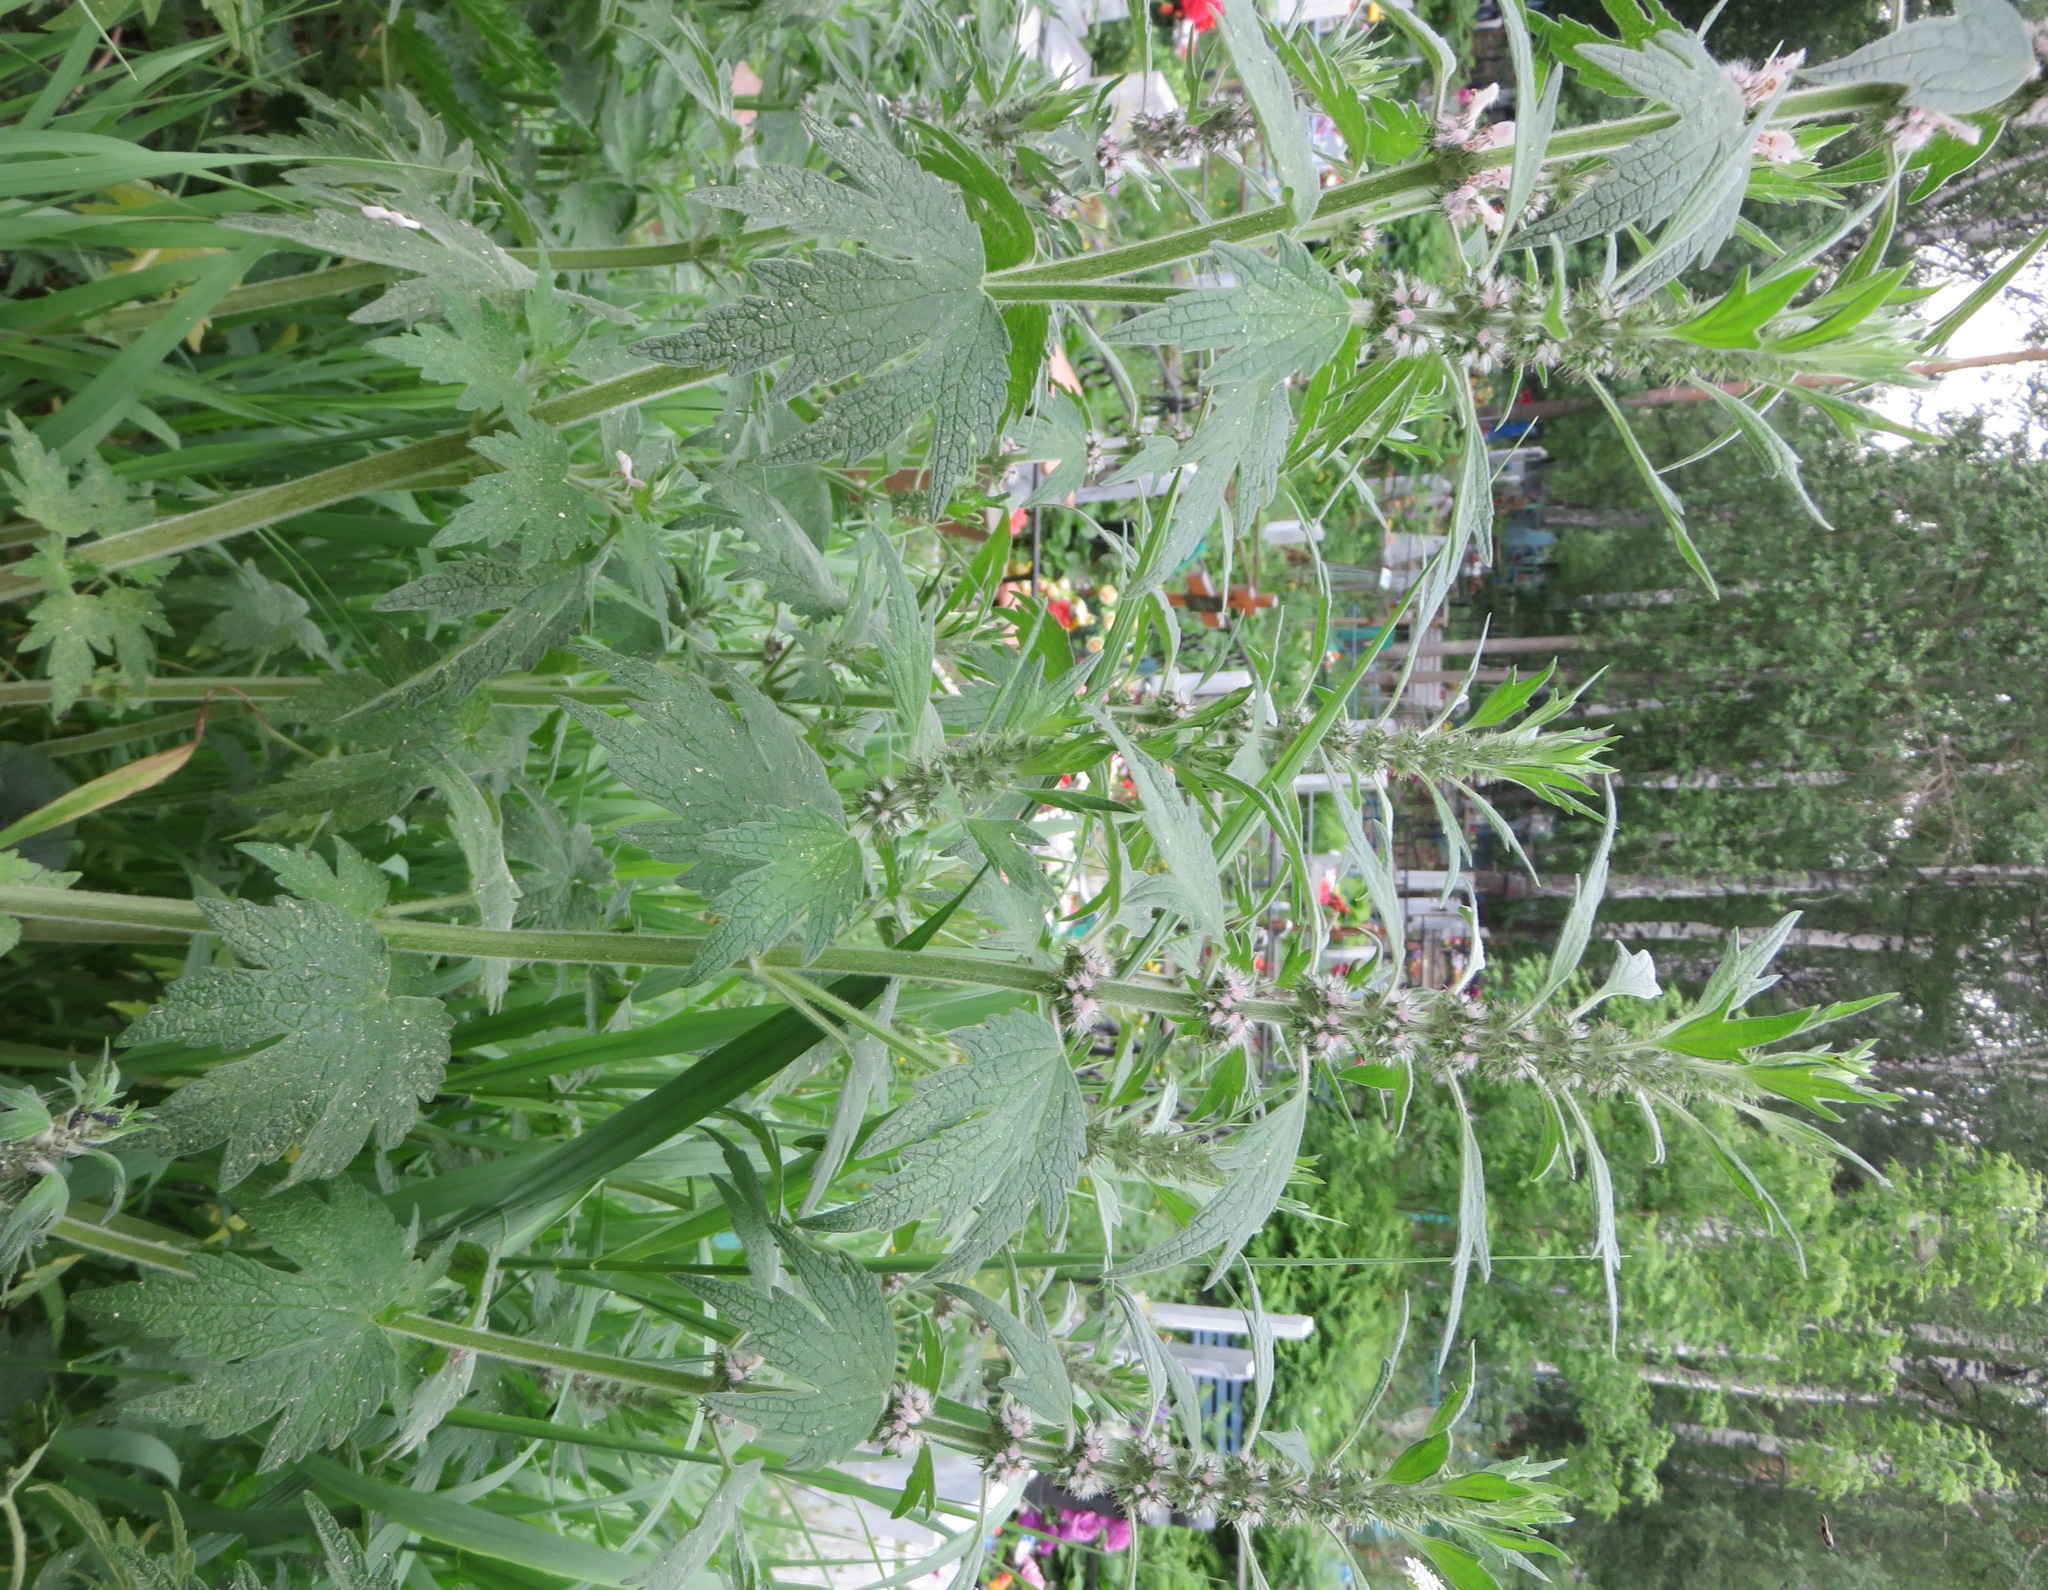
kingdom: Plantae
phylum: Tracheophyta
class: Magnoliopsida
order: Lamiales
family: Lamiaceae
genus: Leonurus
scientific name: Leonurus quinquelobatus
